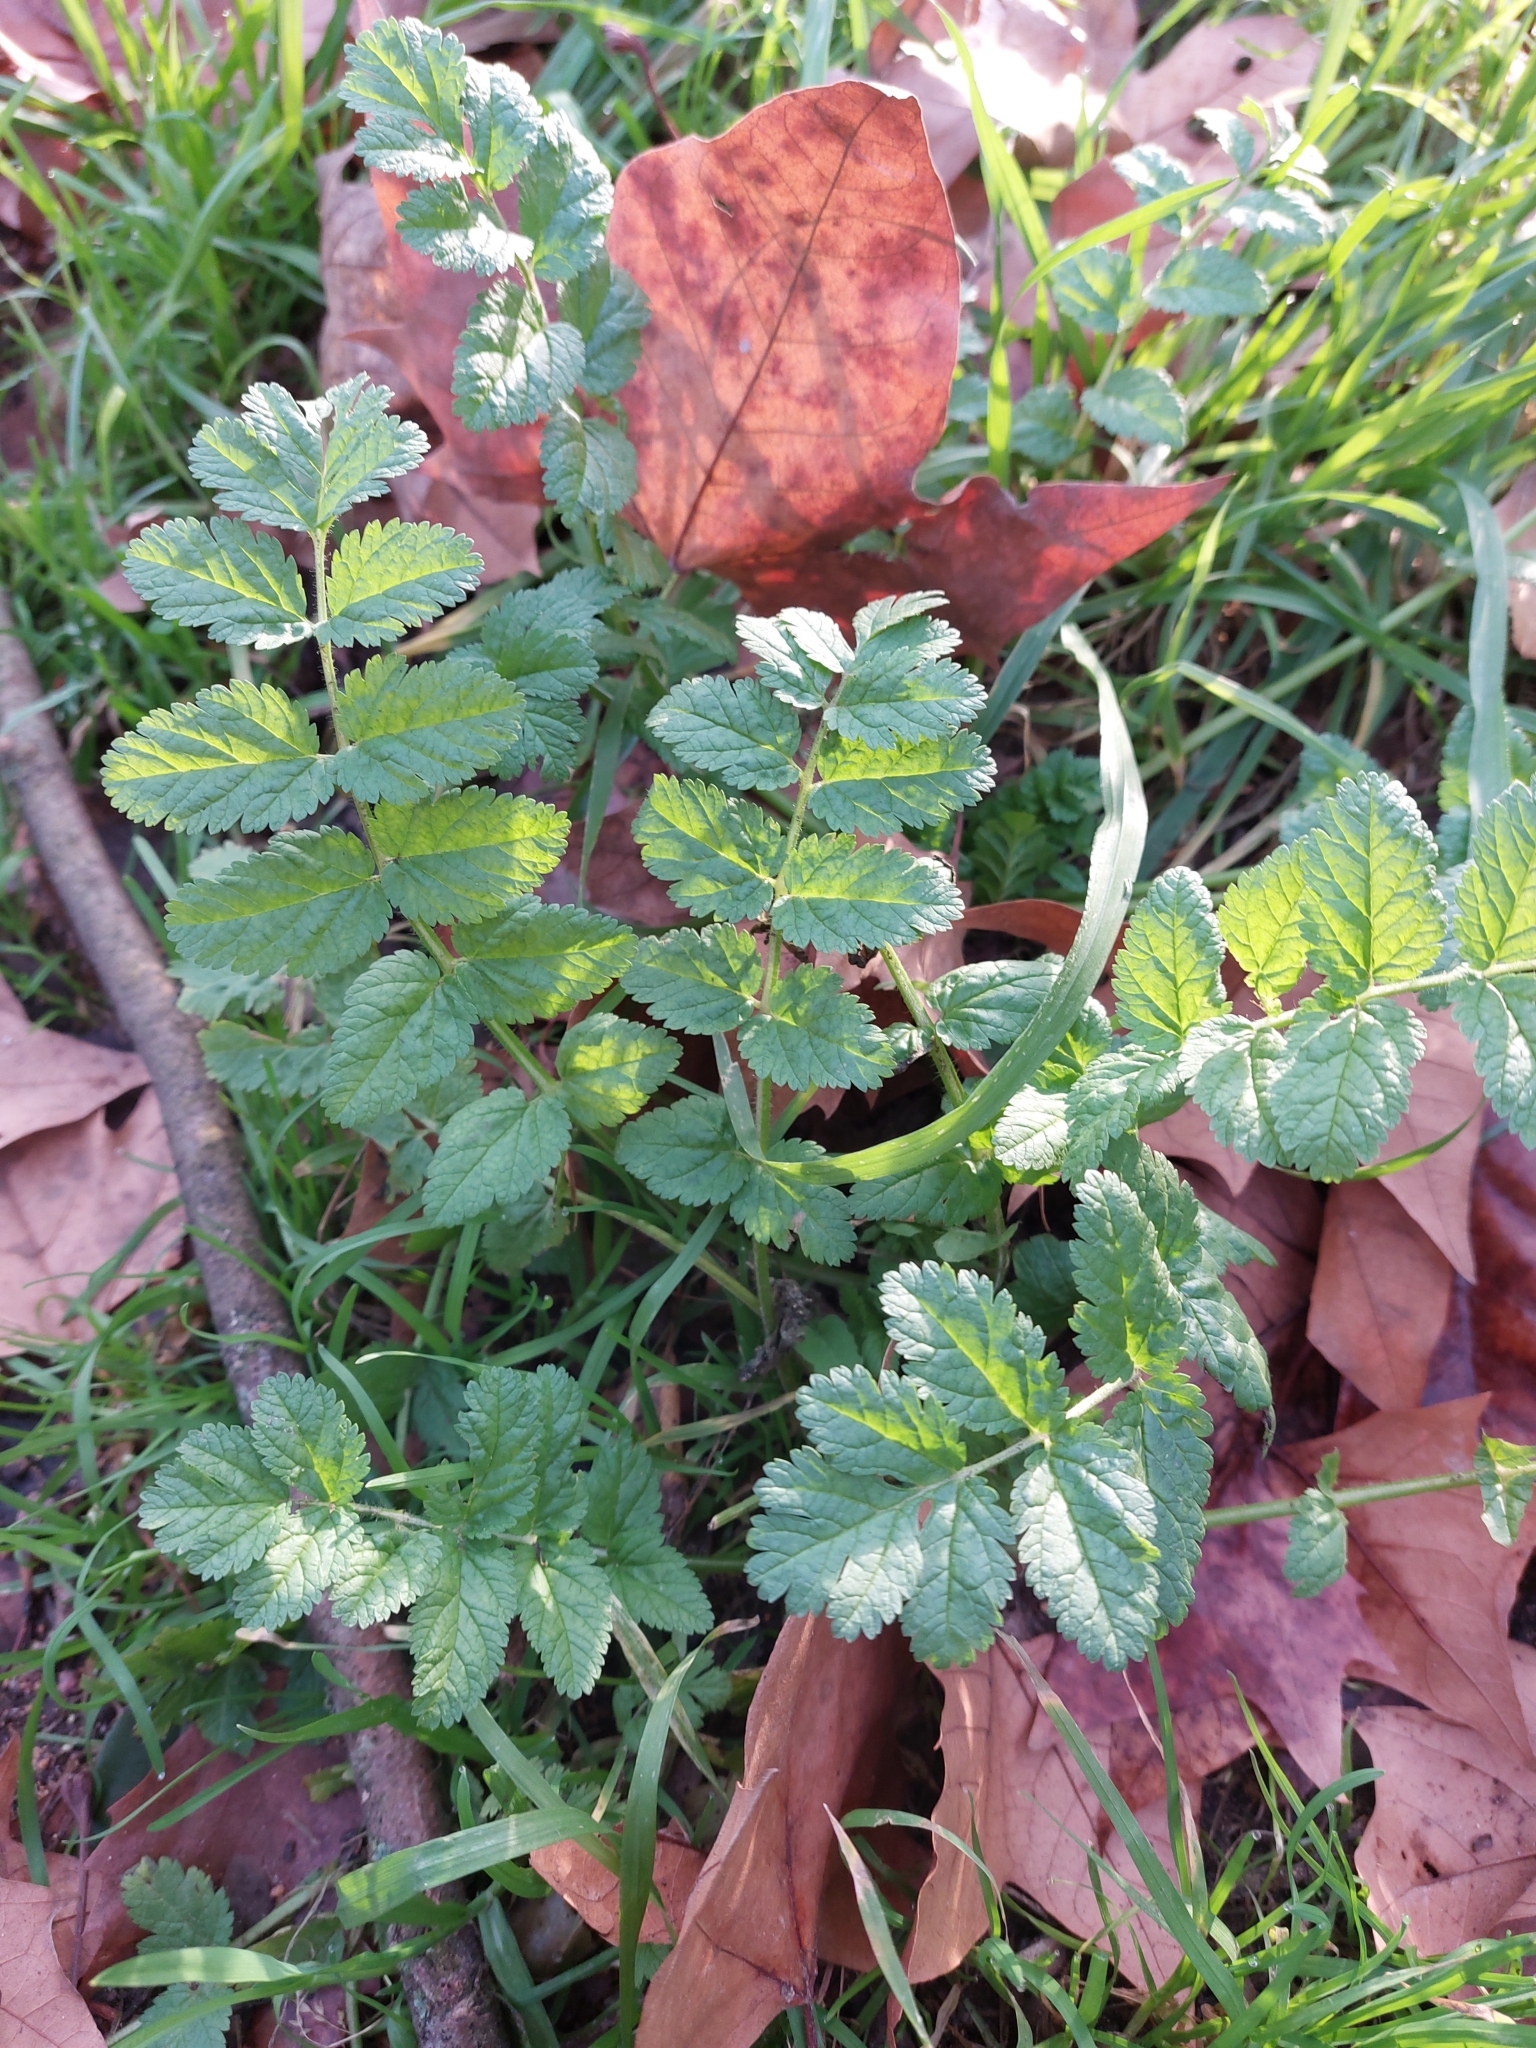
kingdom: Plantae
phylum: Tracheophyta
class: Magnoliopsida
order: Geraniales
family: Geraniaceae
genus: Erodium
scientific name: Erodium moschatum
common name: Musk stork's-bill
